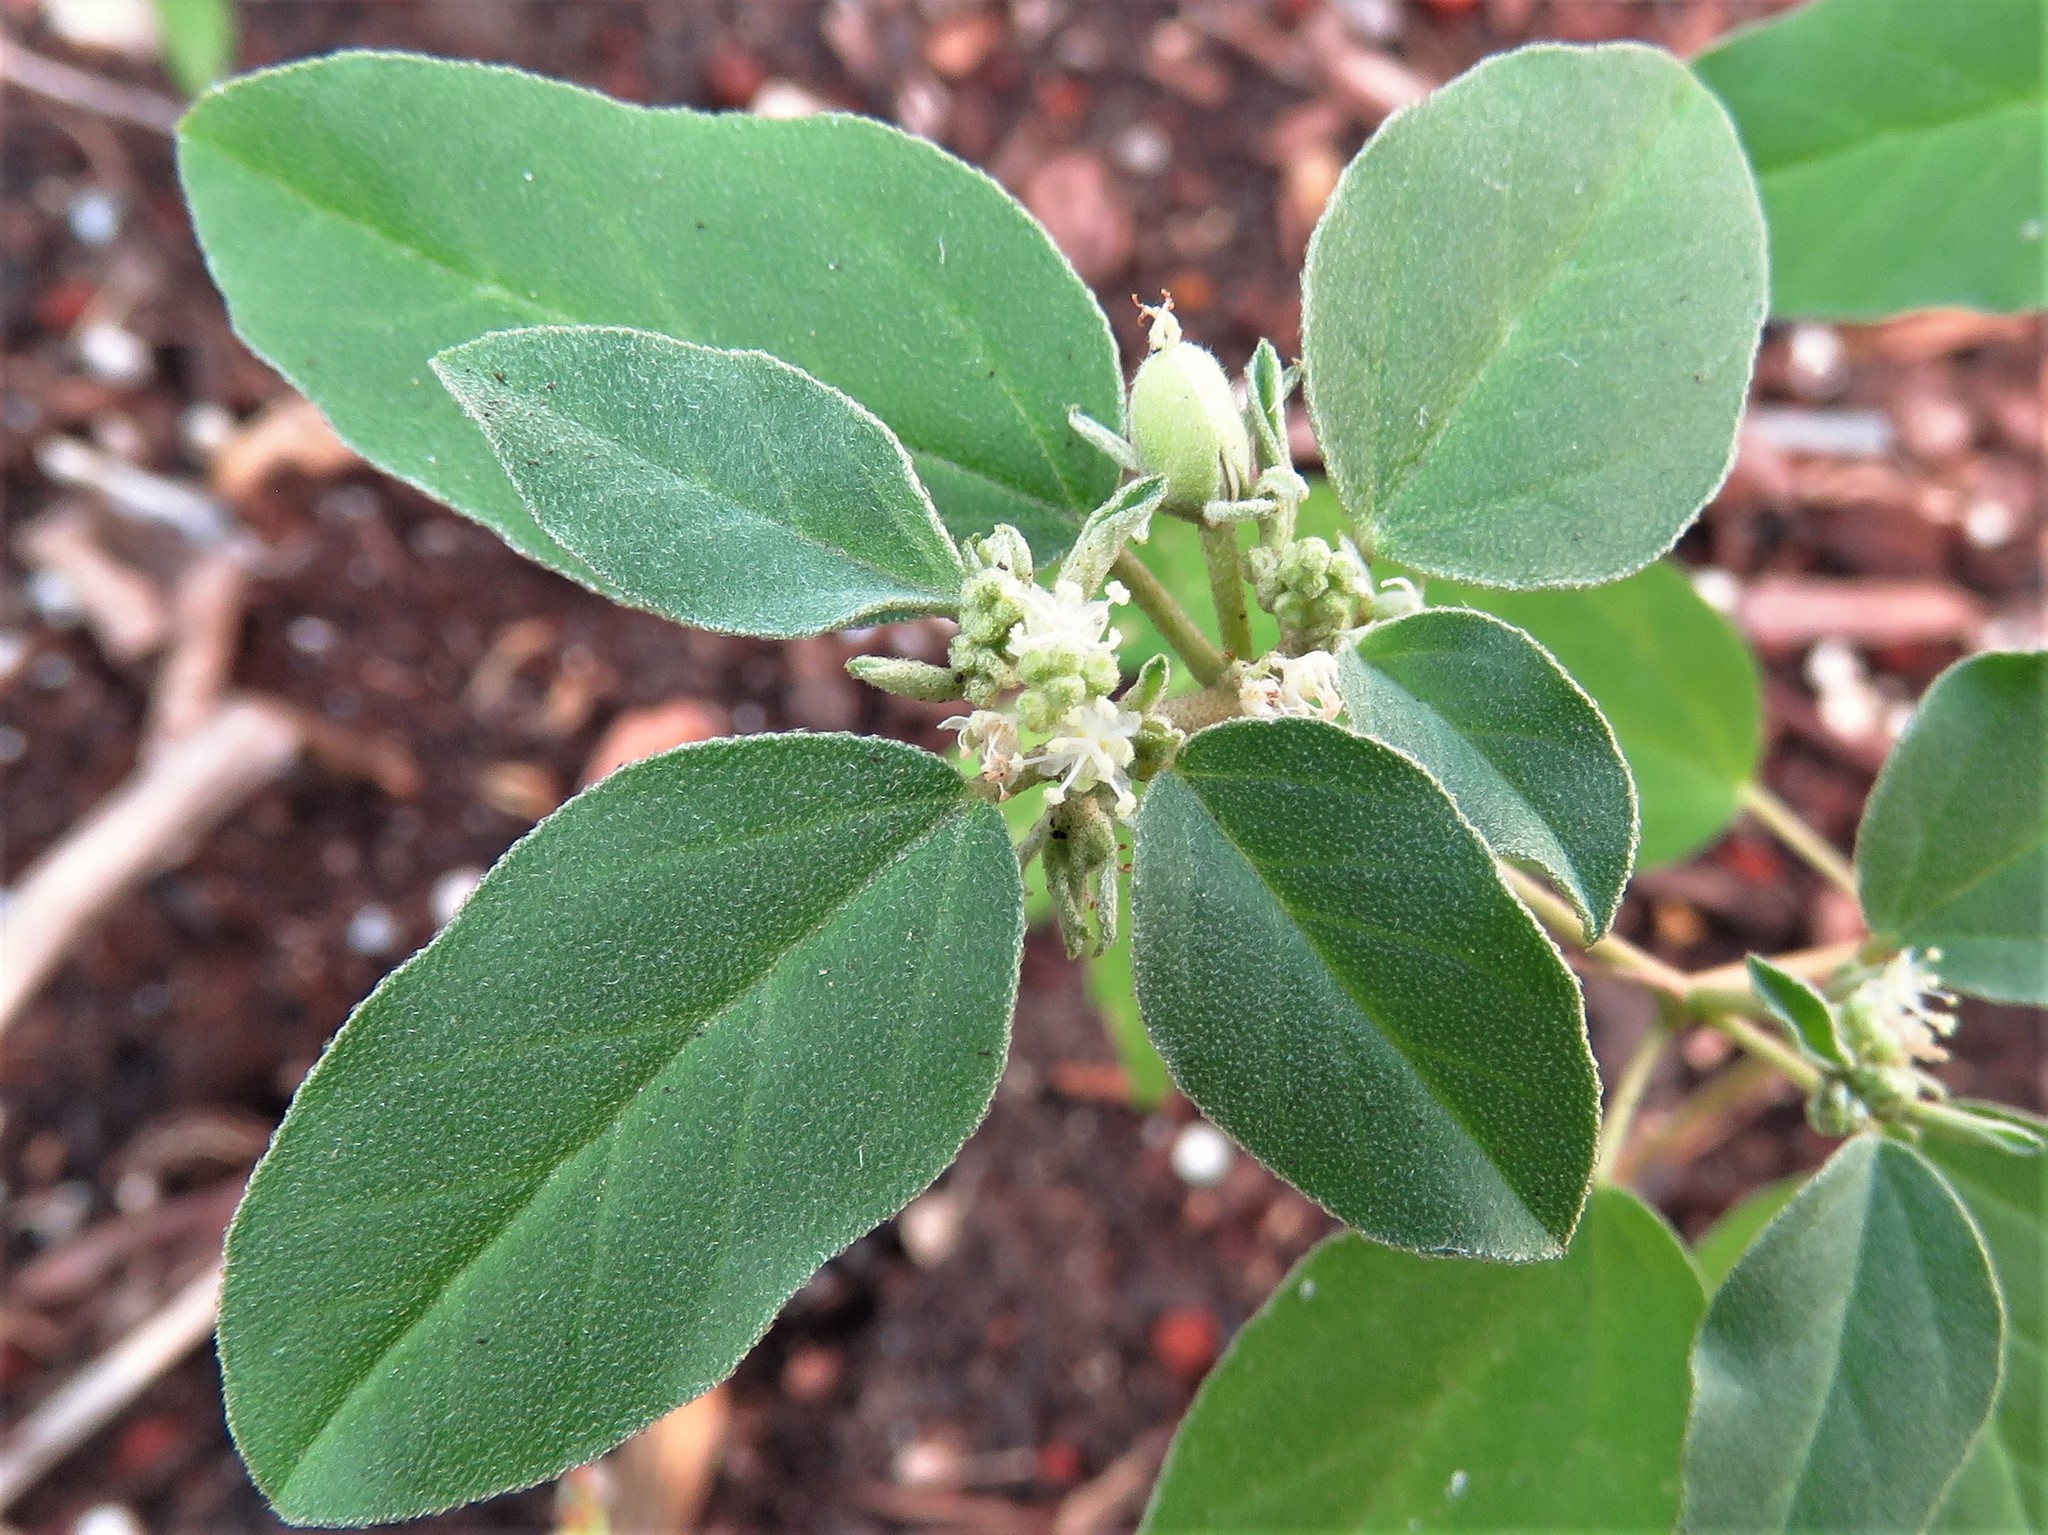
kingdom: Plantae
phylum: Tracheophyta
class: Magnoliopsida
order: Malpighiales
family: Euphorbiaceae
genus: Croton
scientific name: Croton monanthogynus
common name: One-seed croton
